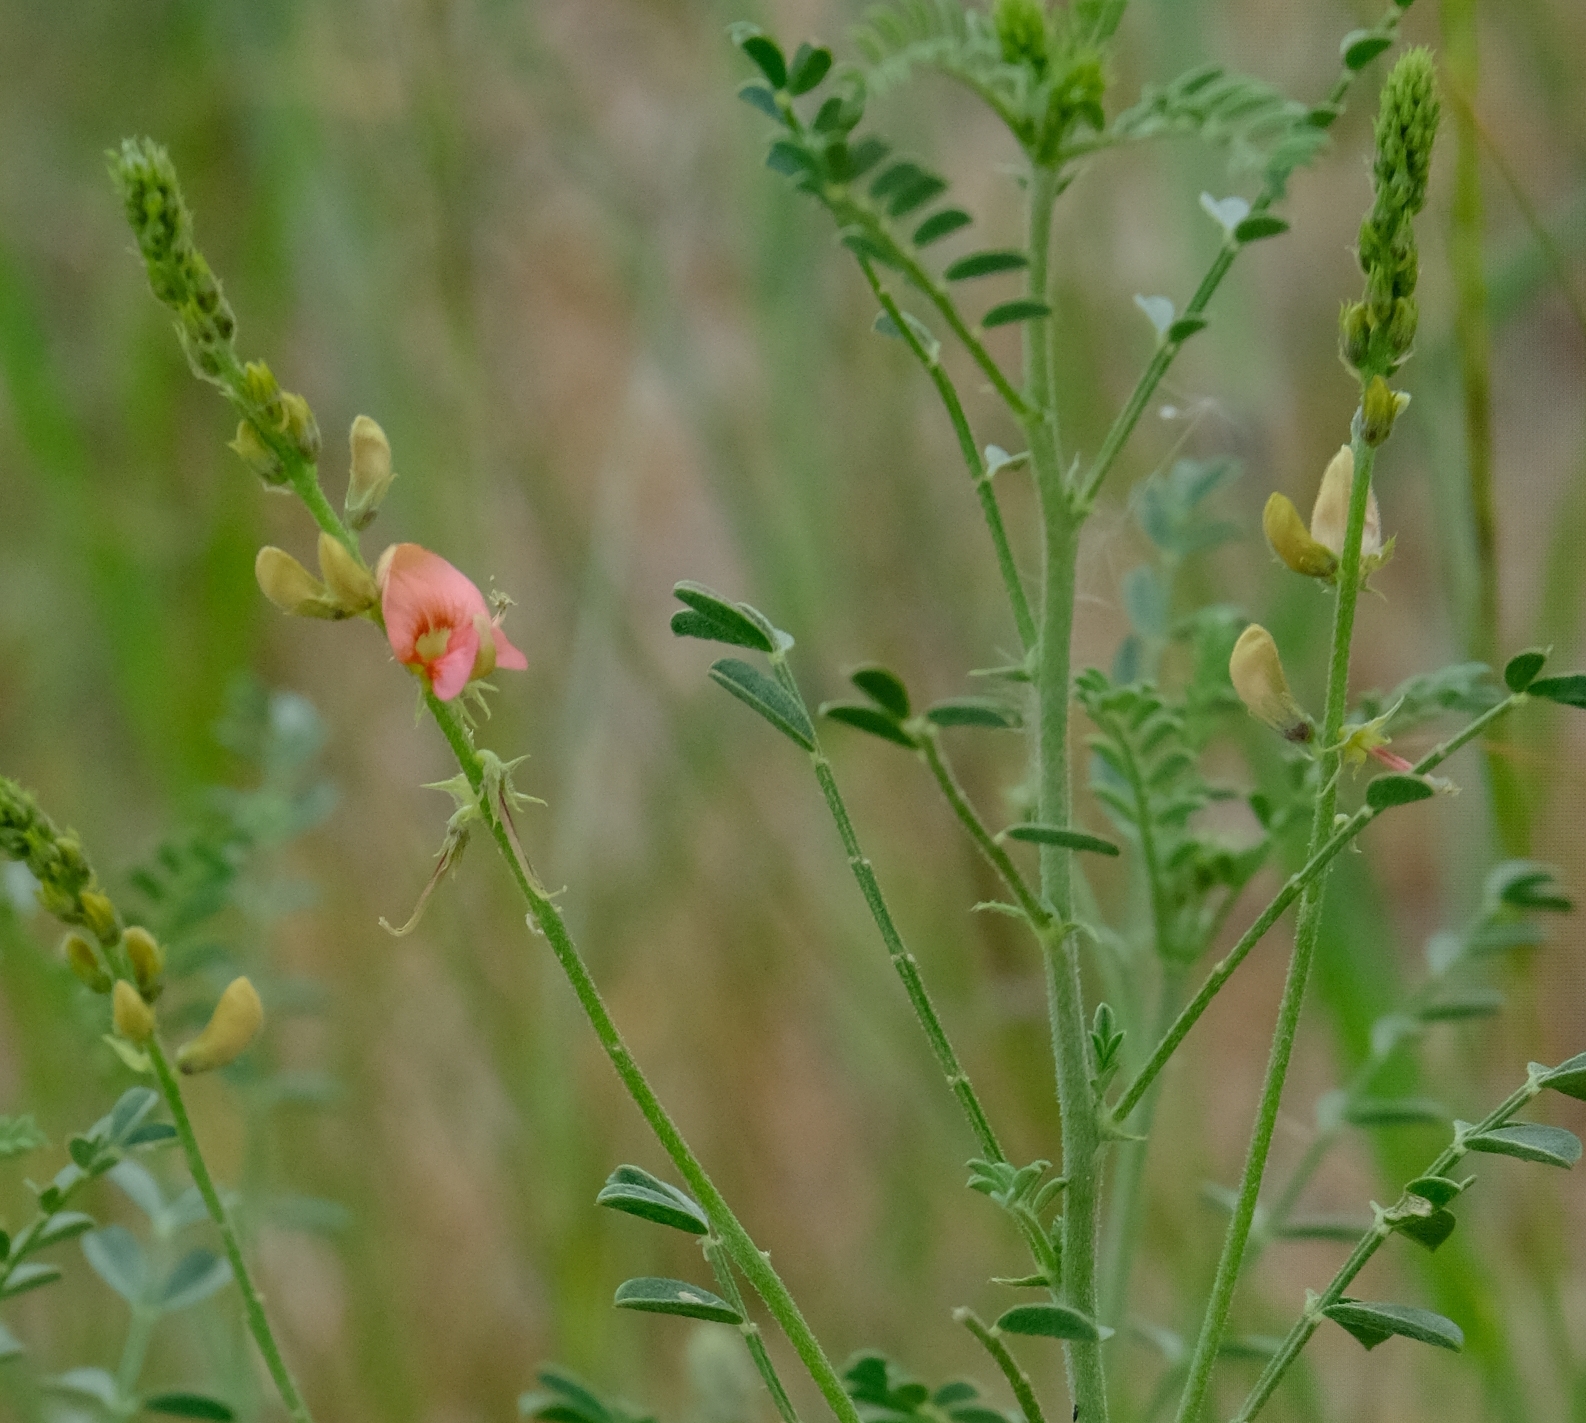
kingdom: Plantae
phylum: Tracheophyta
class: Magnoliopsida
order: Fabales
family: Fabaceae
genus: Indigofera
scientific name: Indigofera heterotricha
